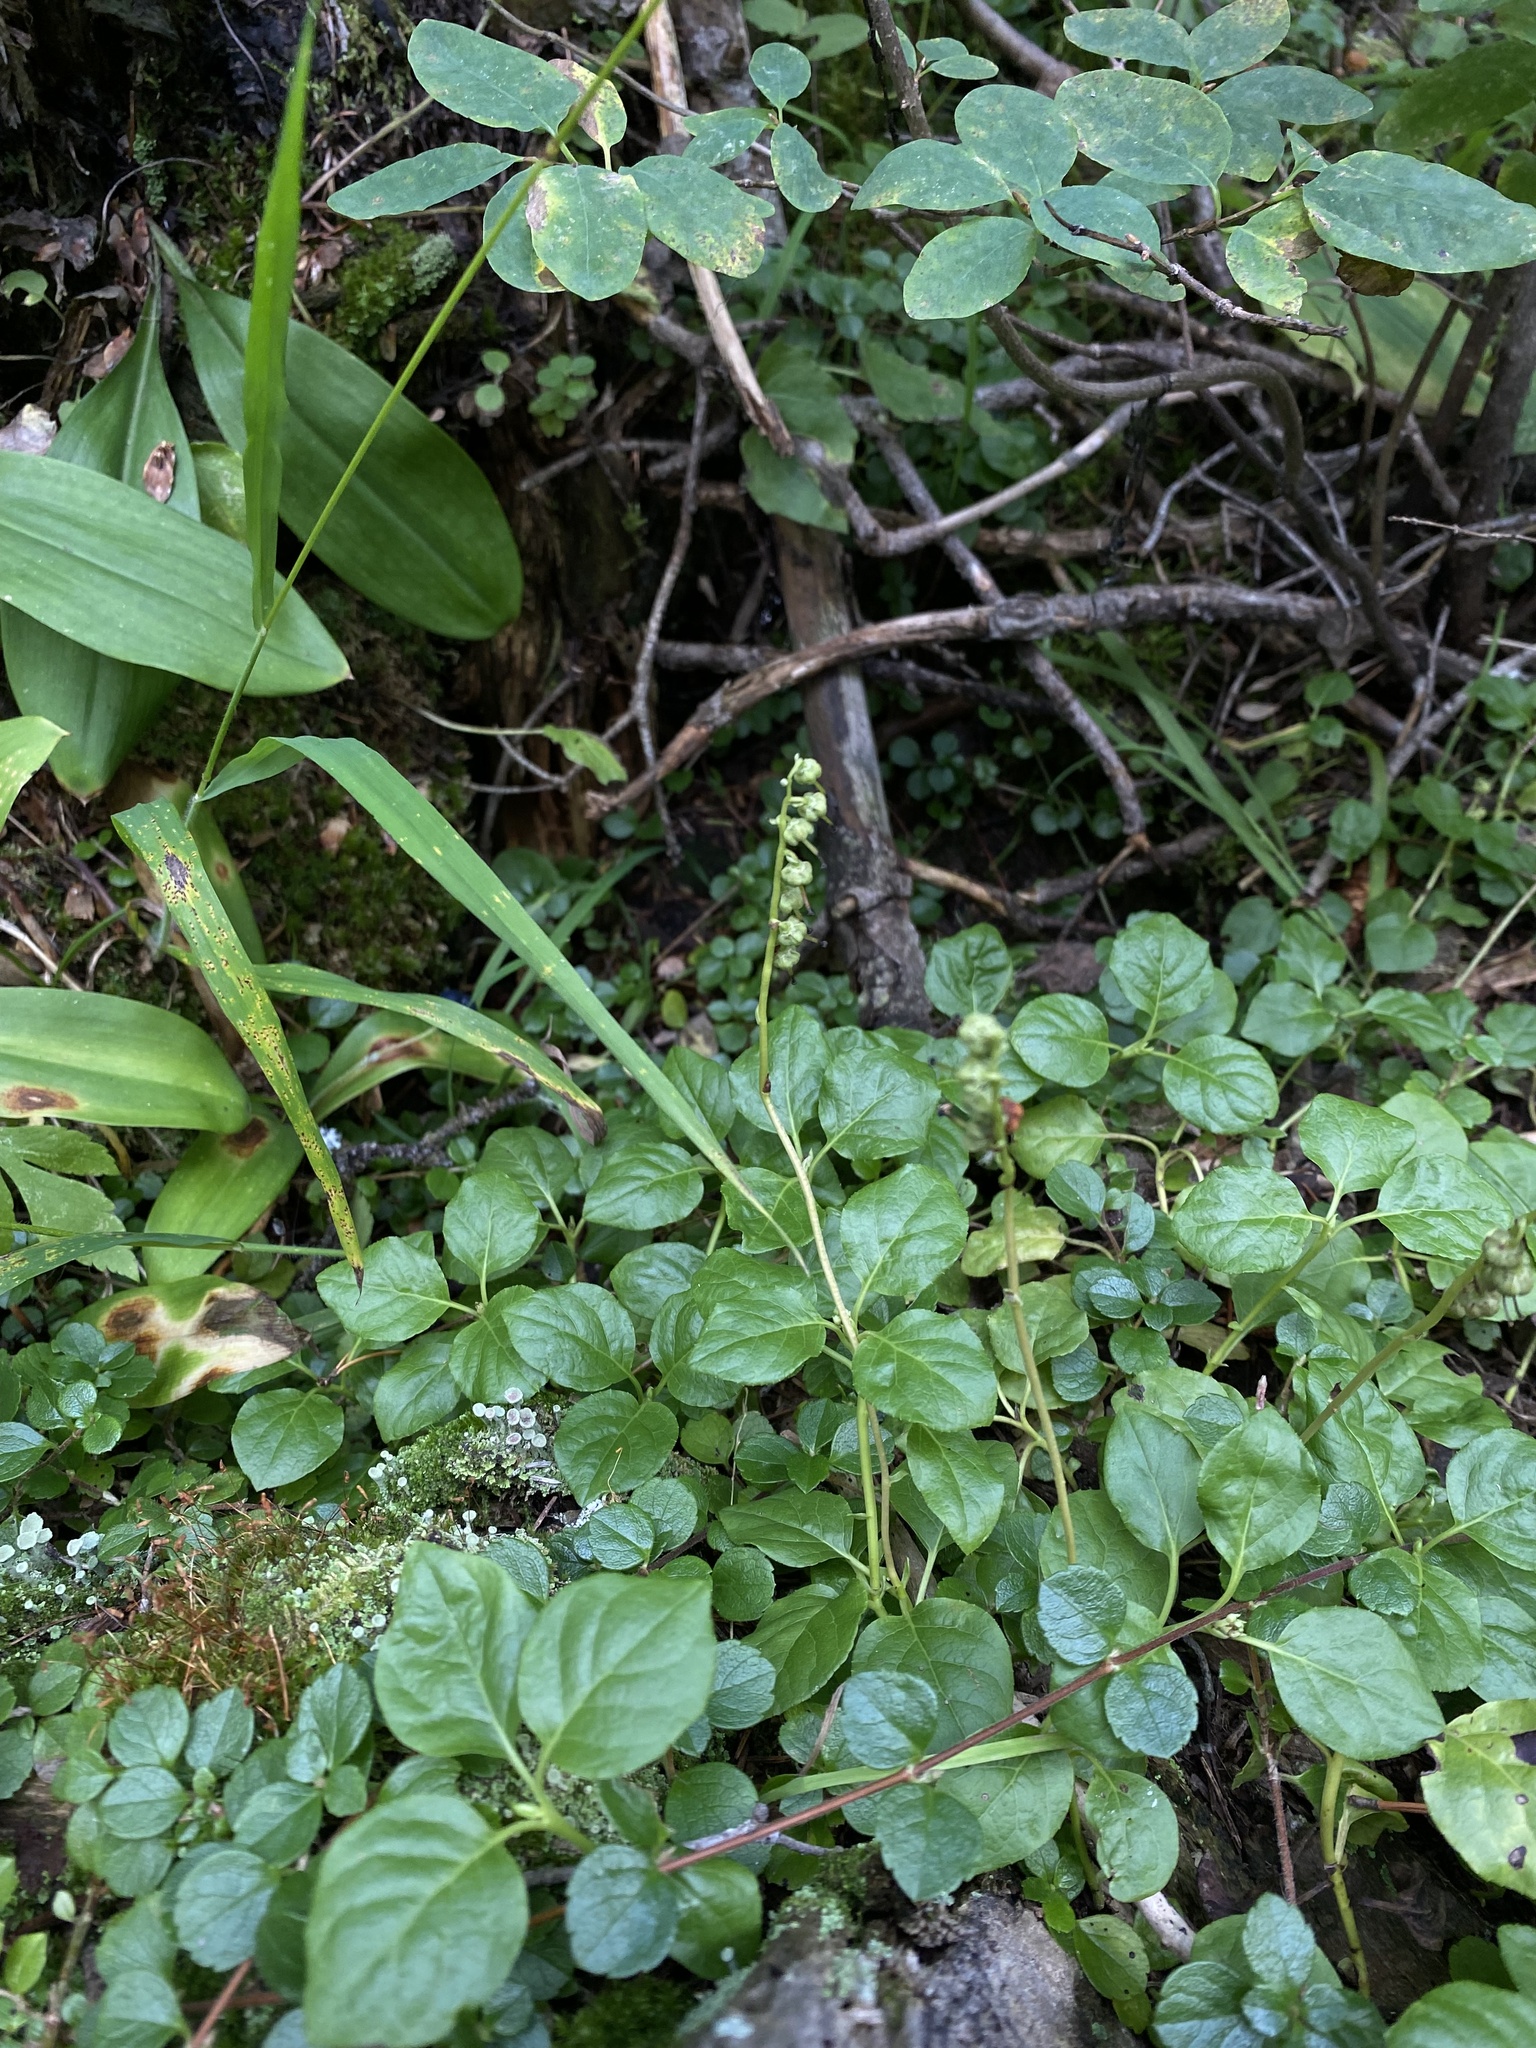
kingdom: Plantae
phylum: Tracheophyta
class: Magnoliopsida
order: Ericales
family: Ericaceae
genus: Orthilia
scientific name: Orthilia secunda
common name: One-sided orthilia
